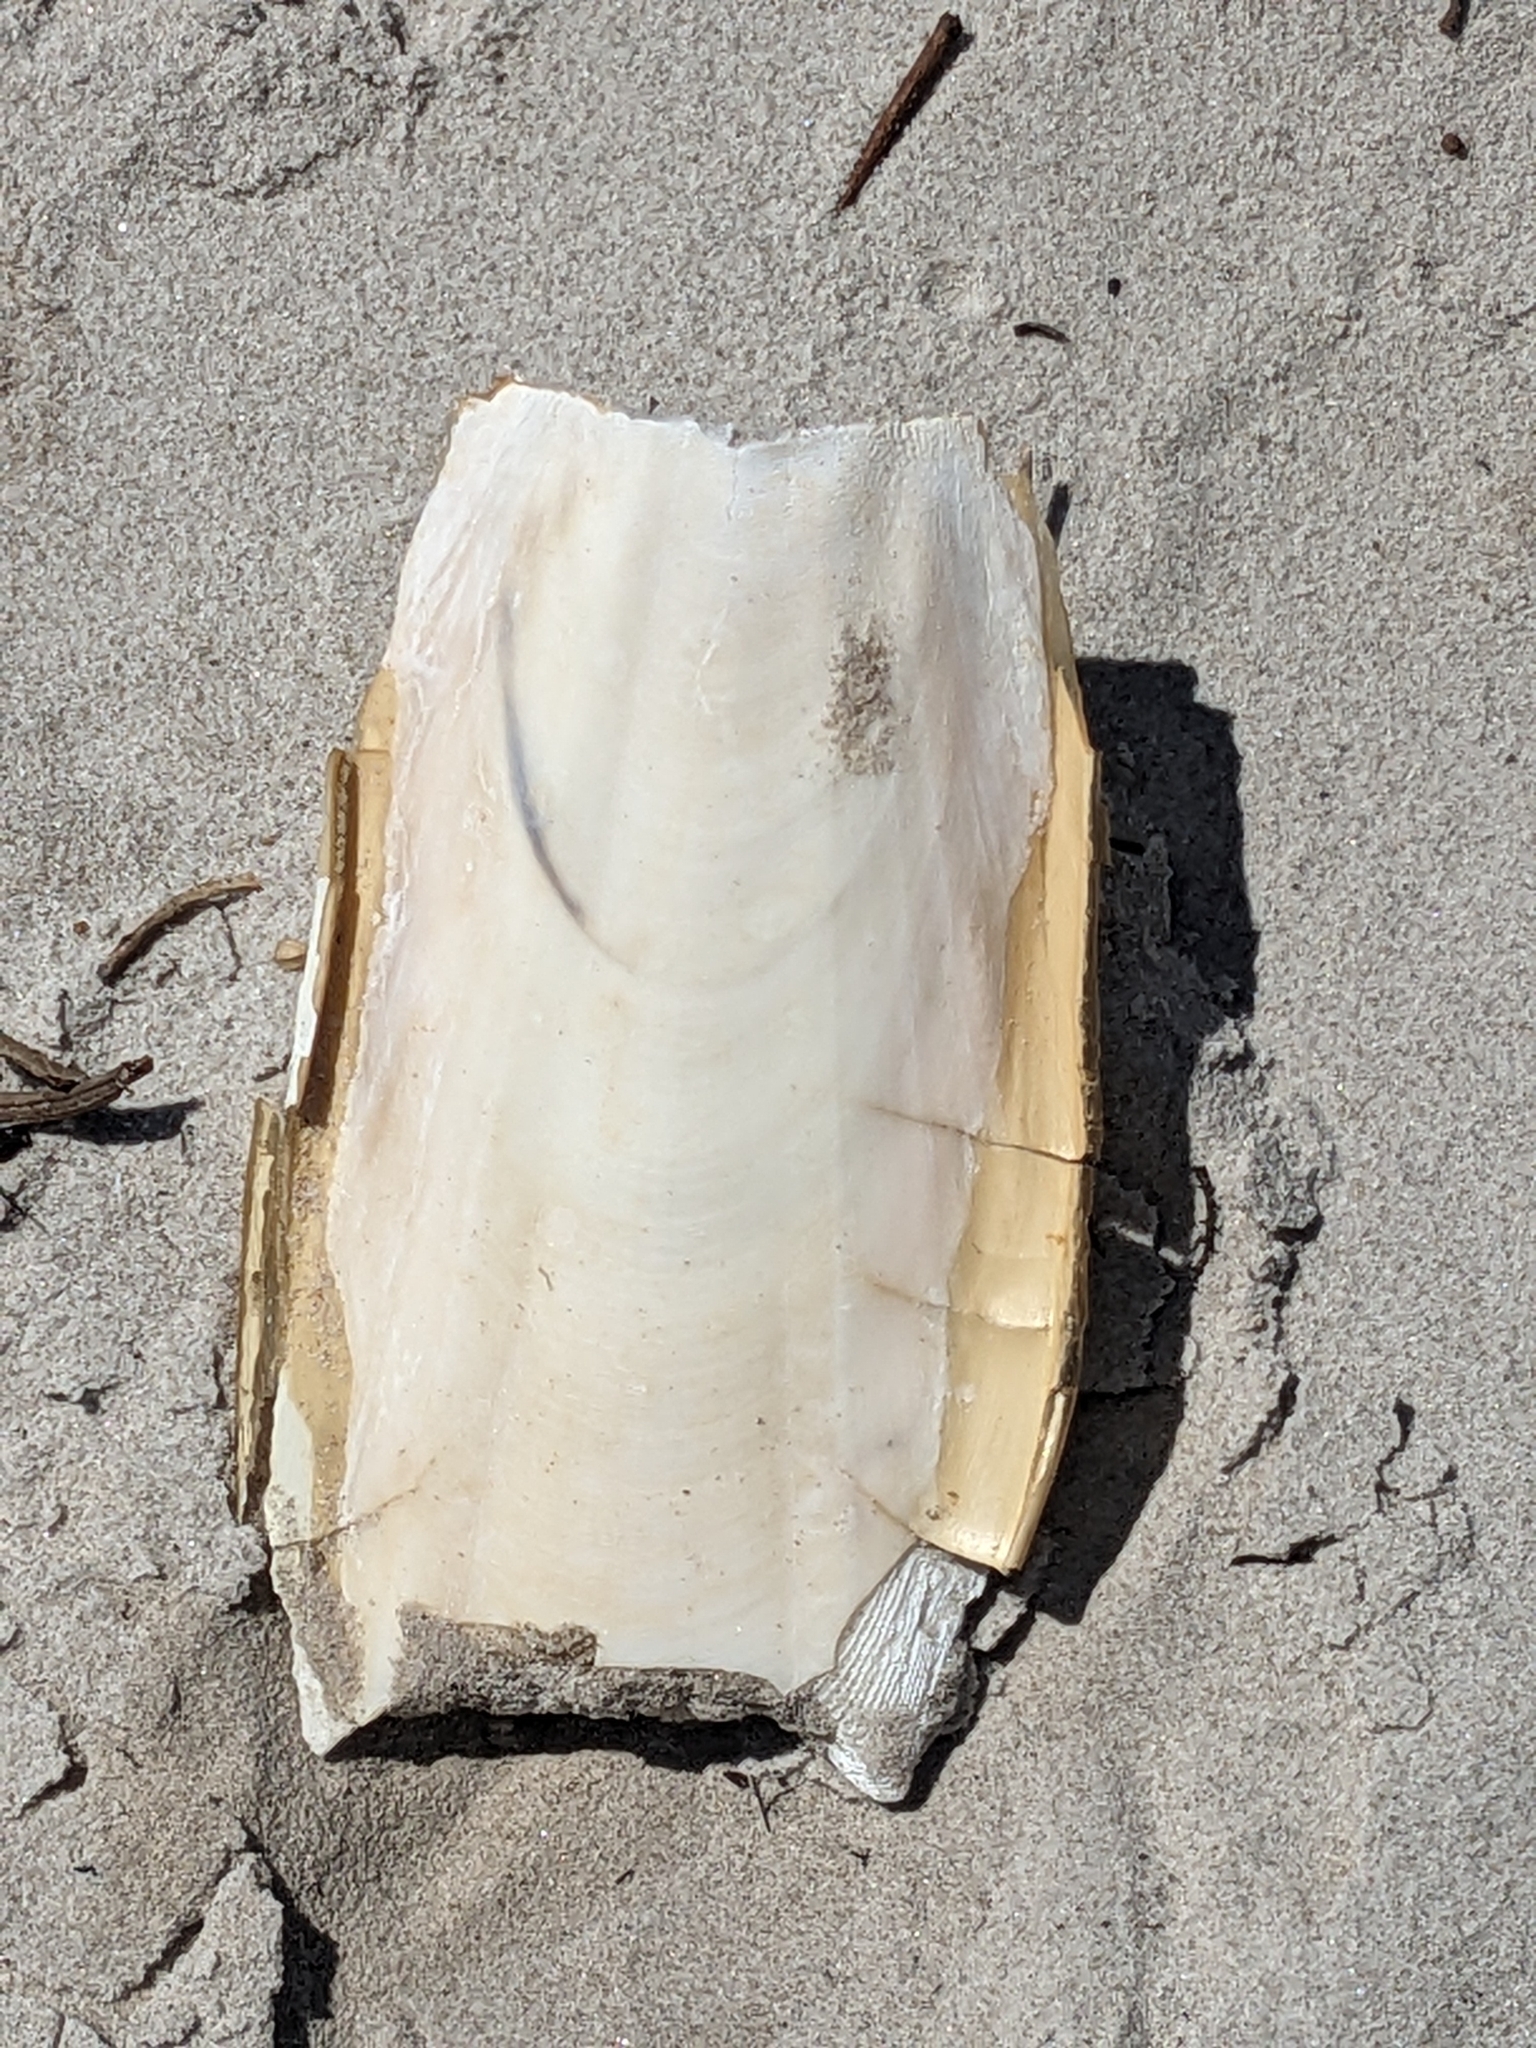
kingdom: Animalia
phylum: Mollusca
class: Cephalopoda
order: Sepiida
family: Sepiidae
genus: Ascarosepion
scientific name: Ascarosepion apama
